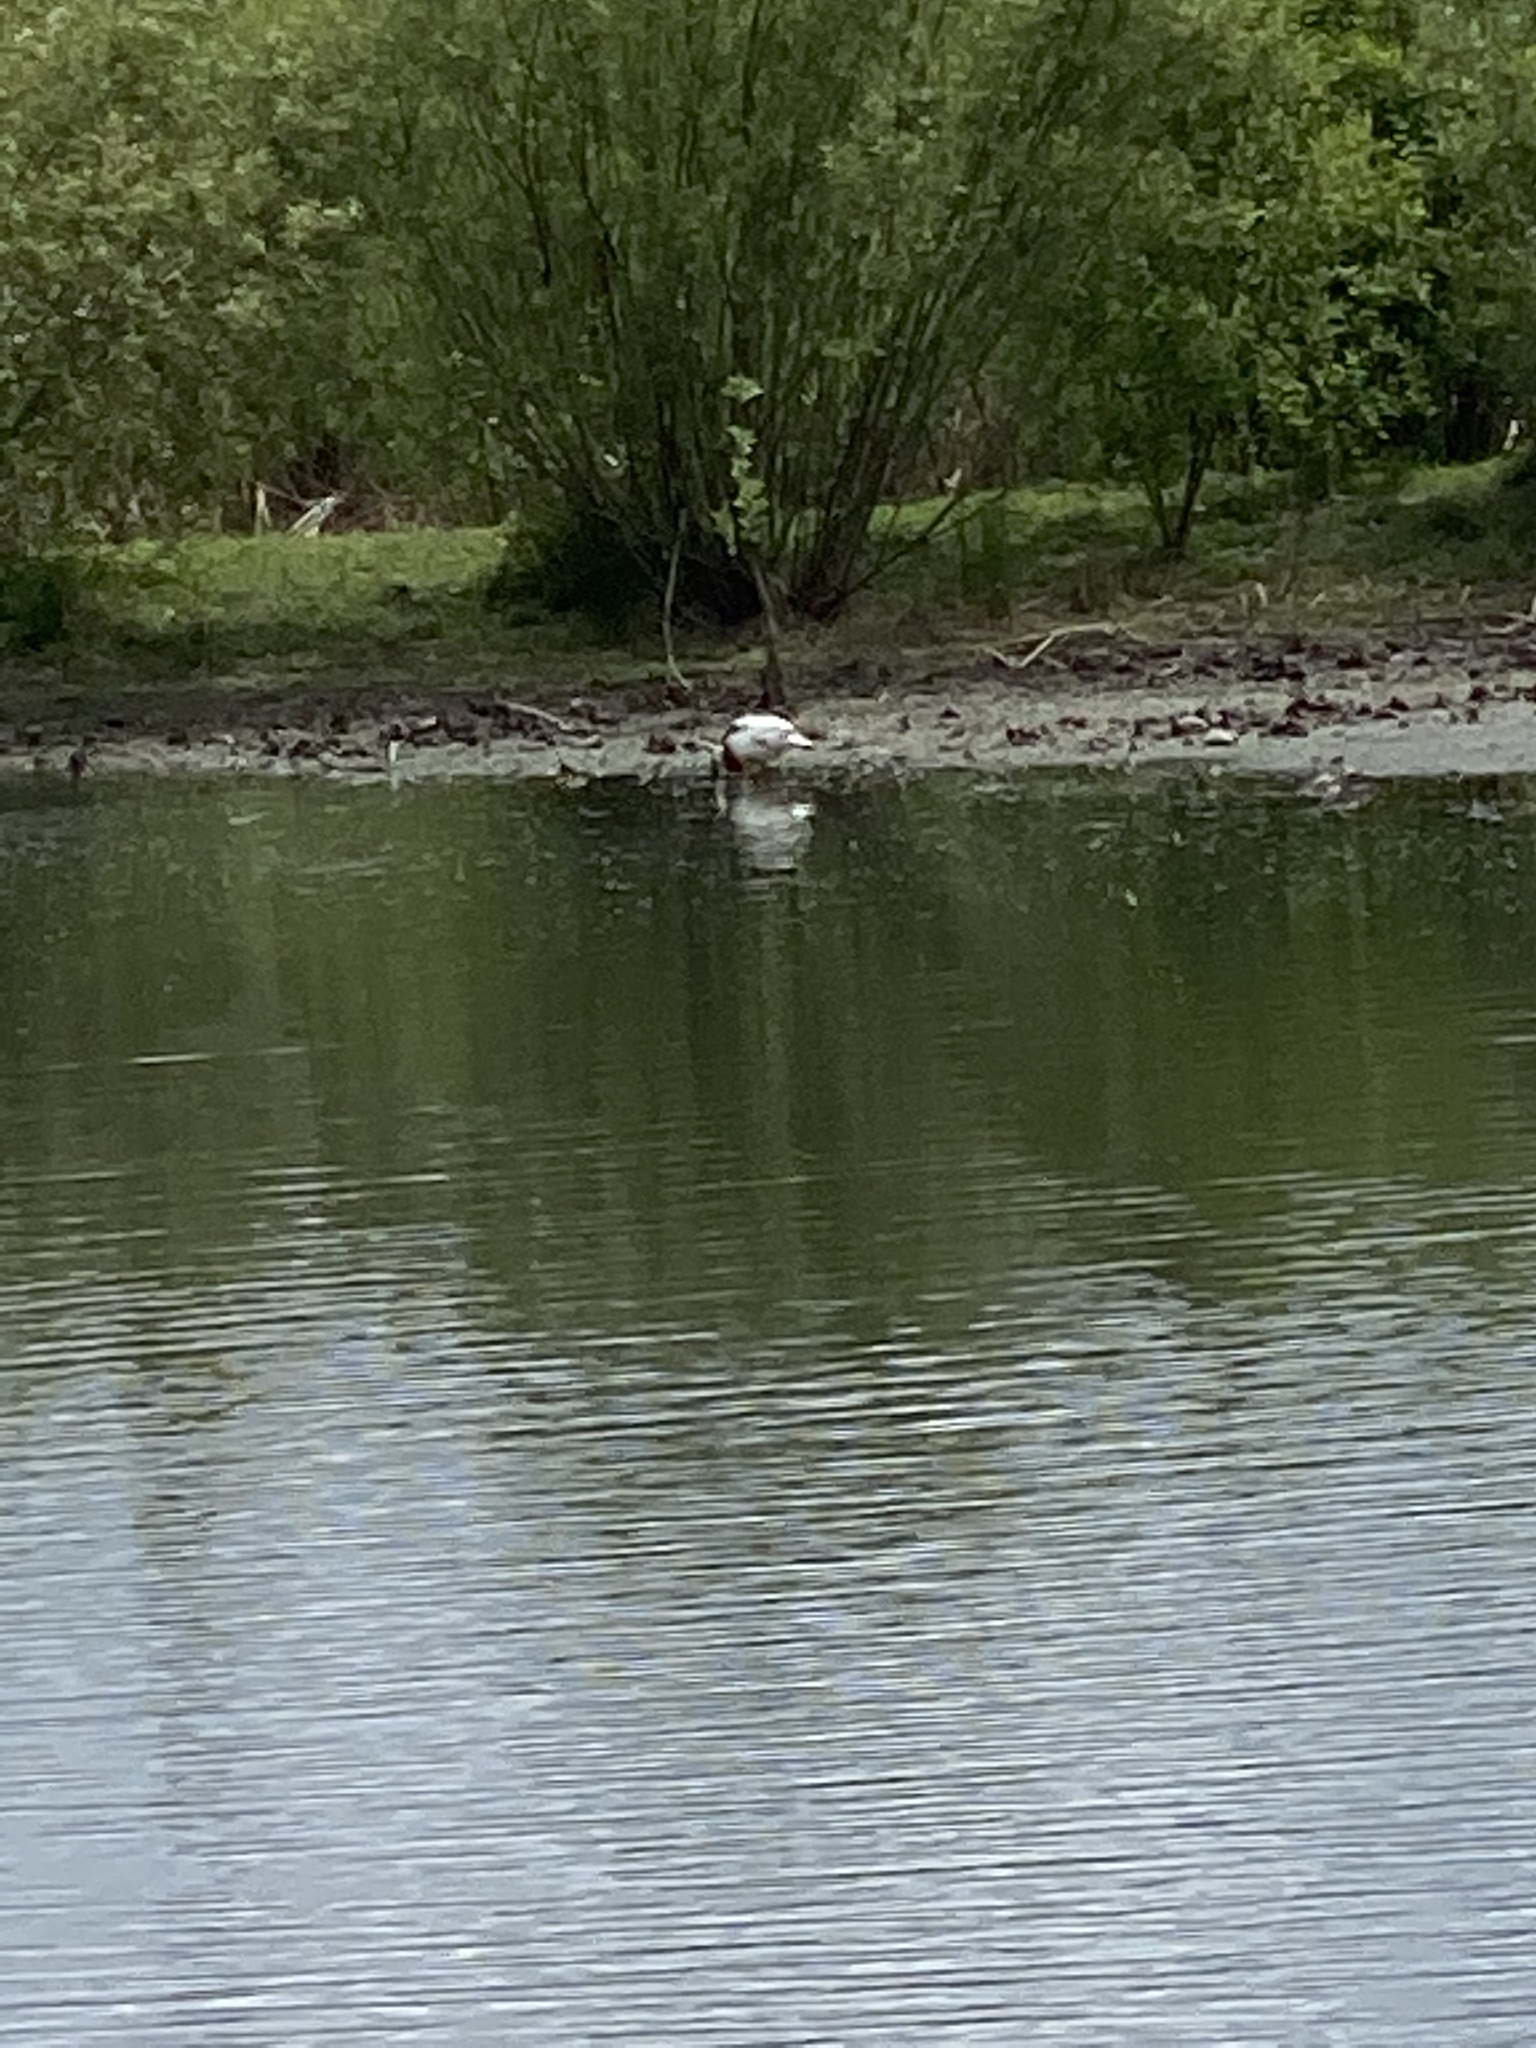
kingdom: Animalia
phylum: Chordata
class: Aves
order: Anseriformes
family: Anatidae
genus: Anas
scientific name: Anas platyrhynchos
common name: Mallard
